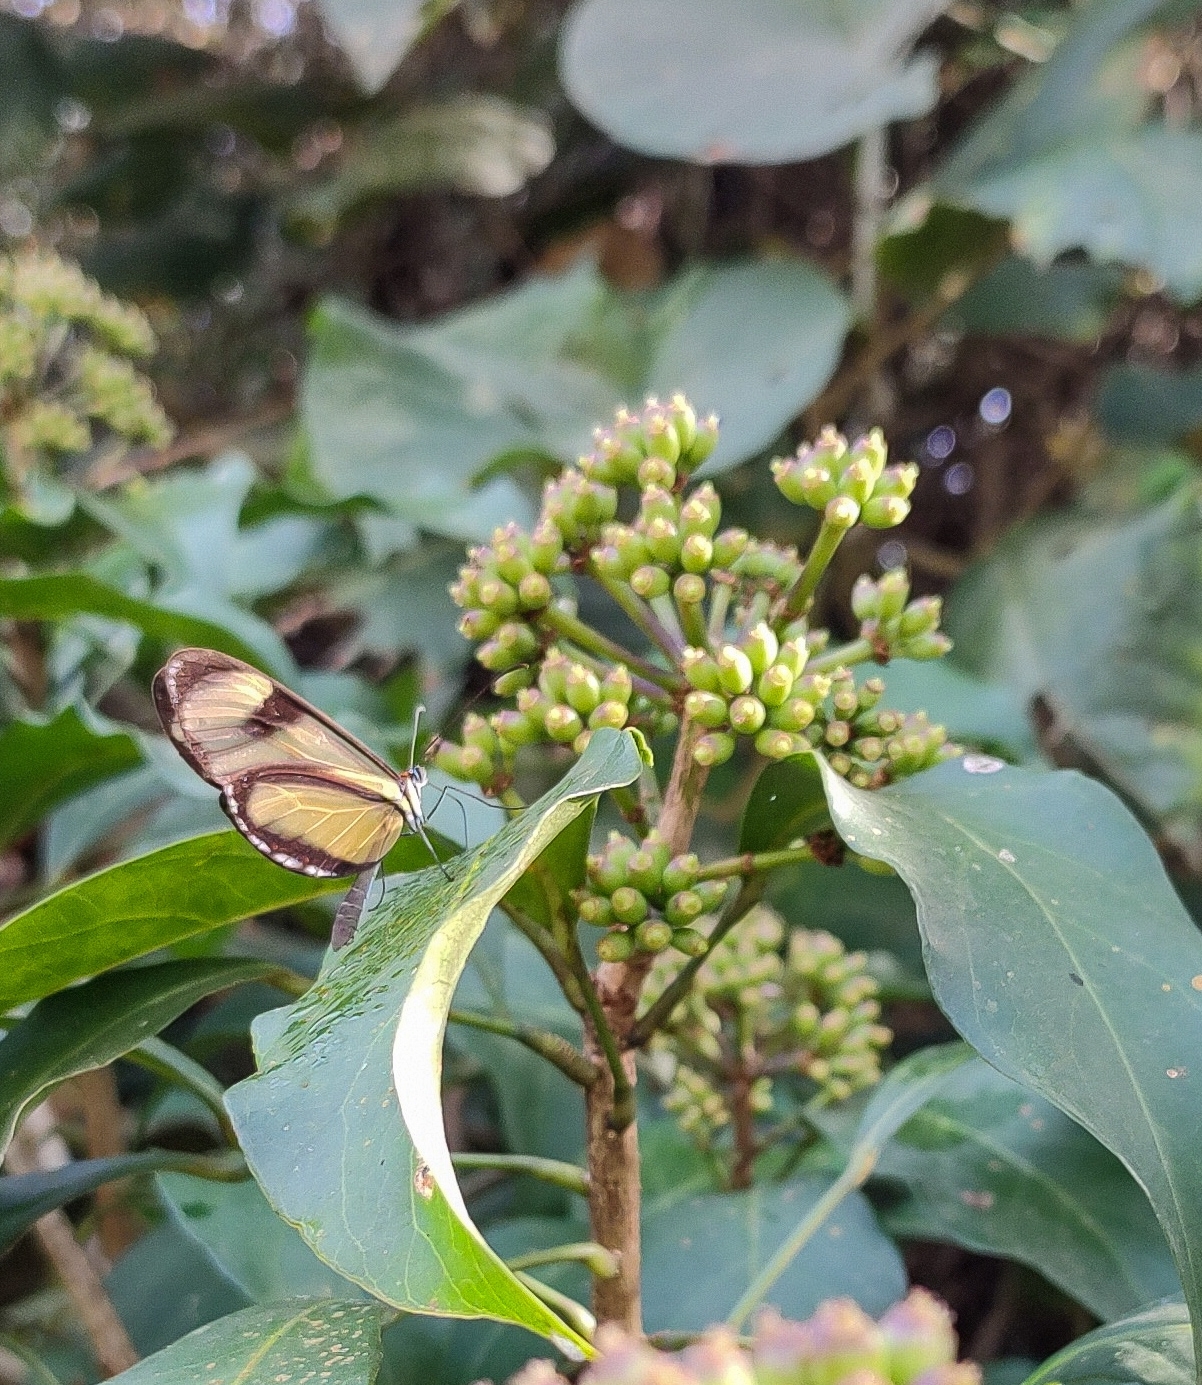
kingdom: Animalia
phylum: Arthropoda
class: Insecta
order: Lepidoptera
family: Nymphalidae
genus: Epityches
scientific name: Epityches eupompe
